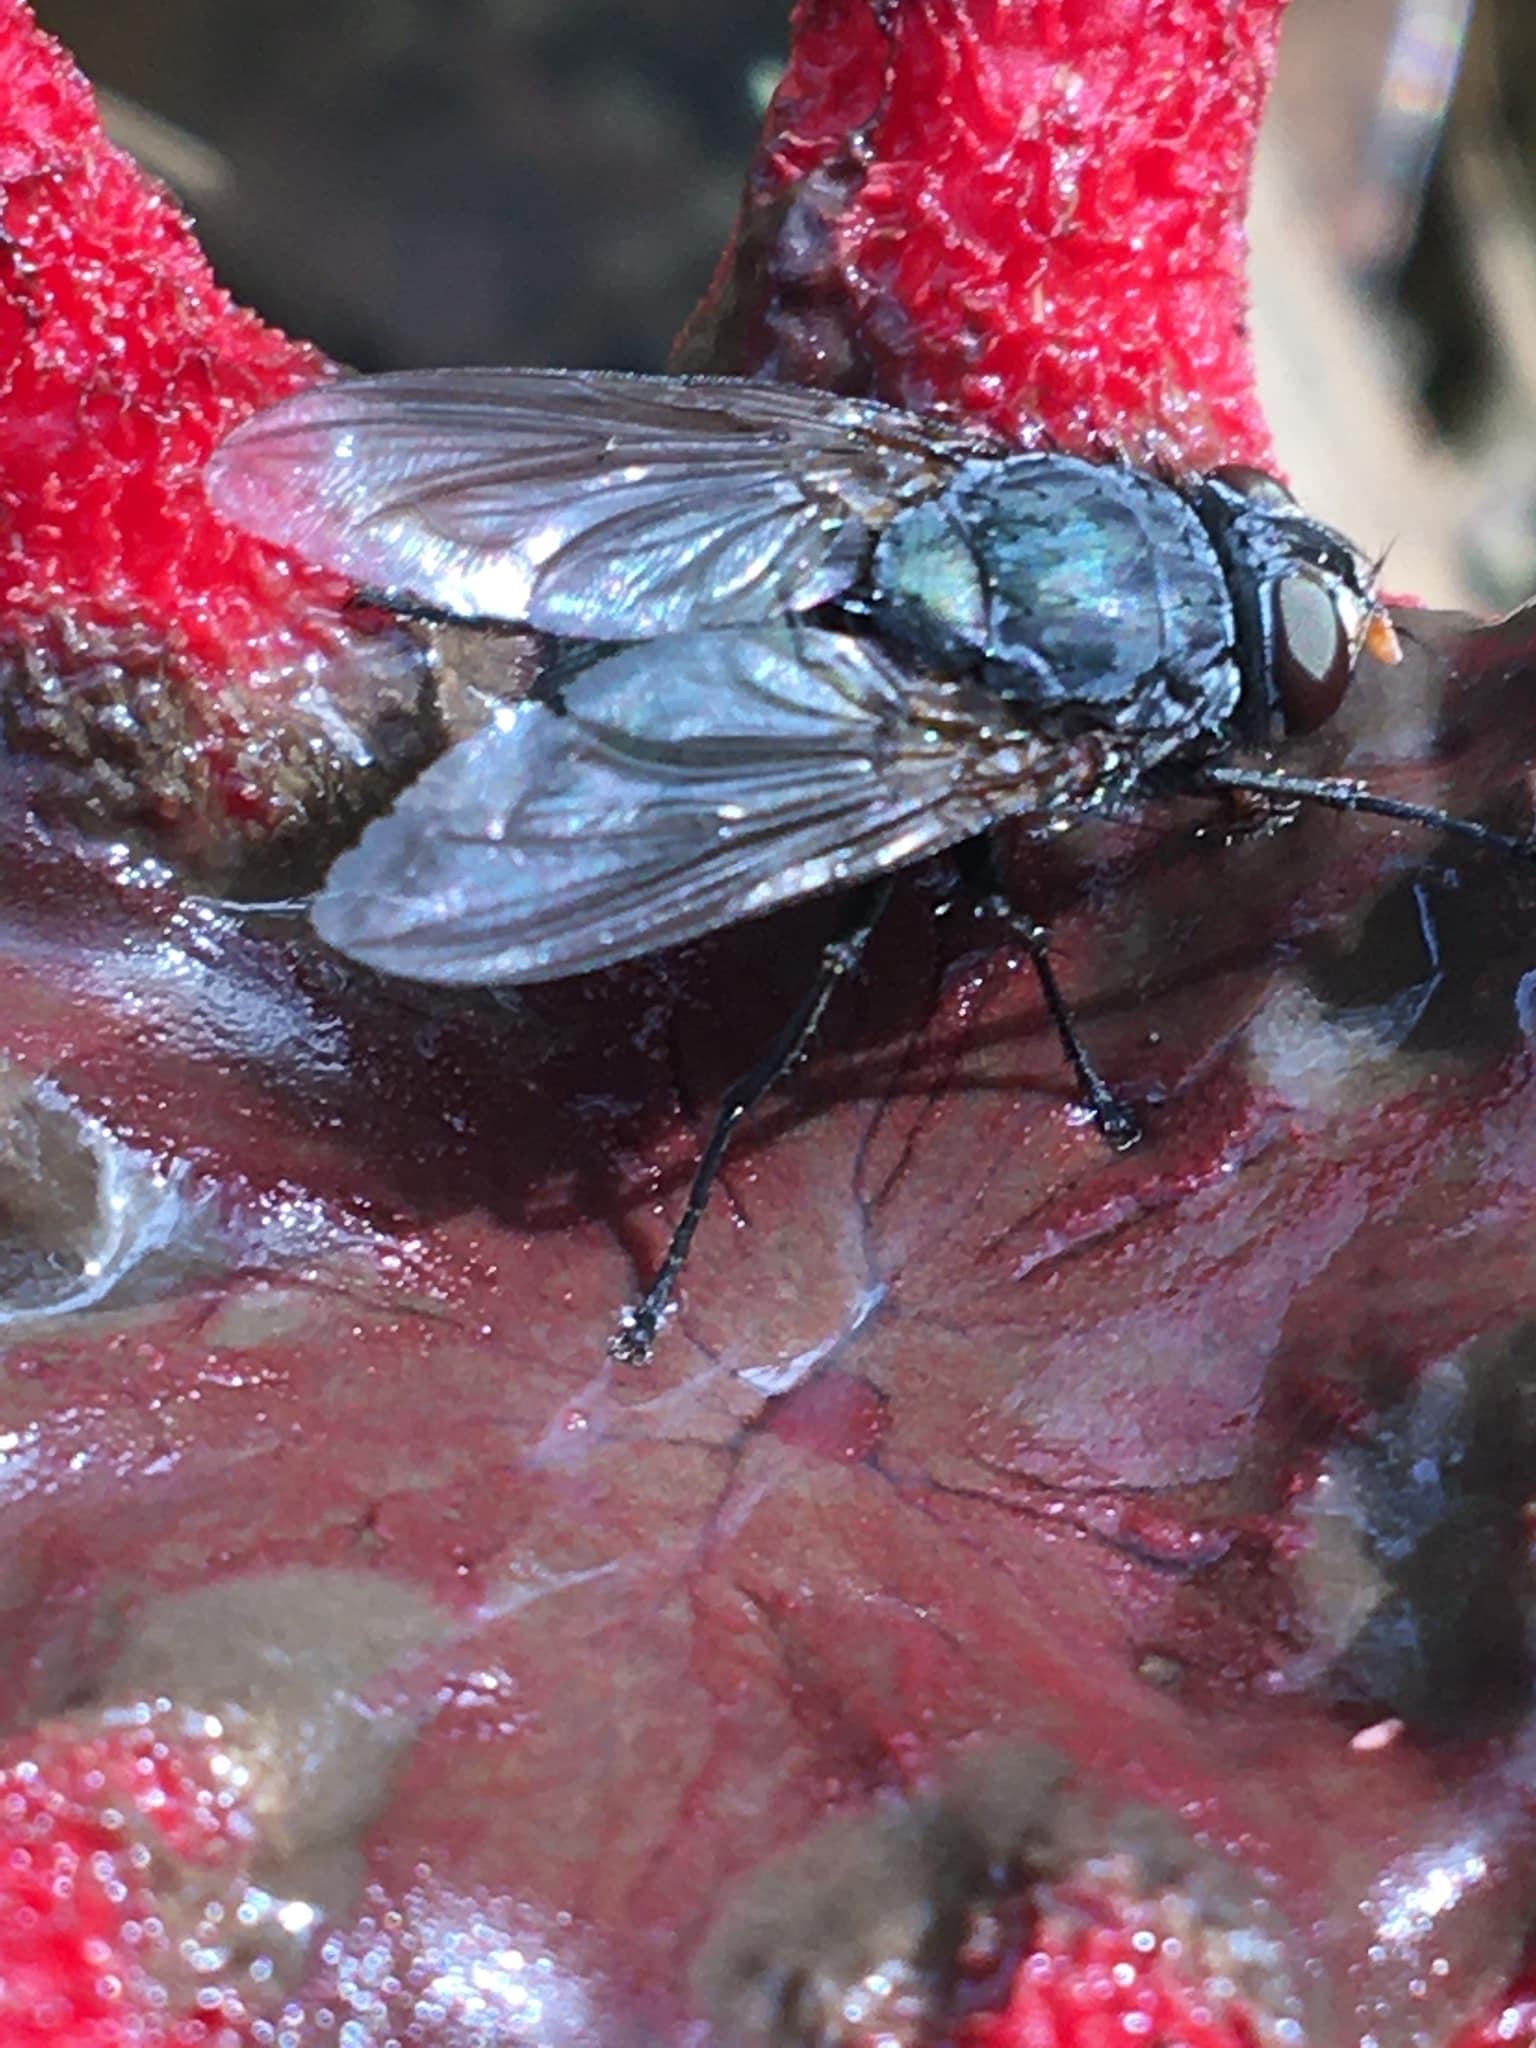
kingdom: Fungi
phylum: Basidiomycota
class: Agaricomycetes
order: Phallales
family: Phallaceae
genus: Aseroe
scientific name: Aseroe rubra
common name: Starfish fungus
